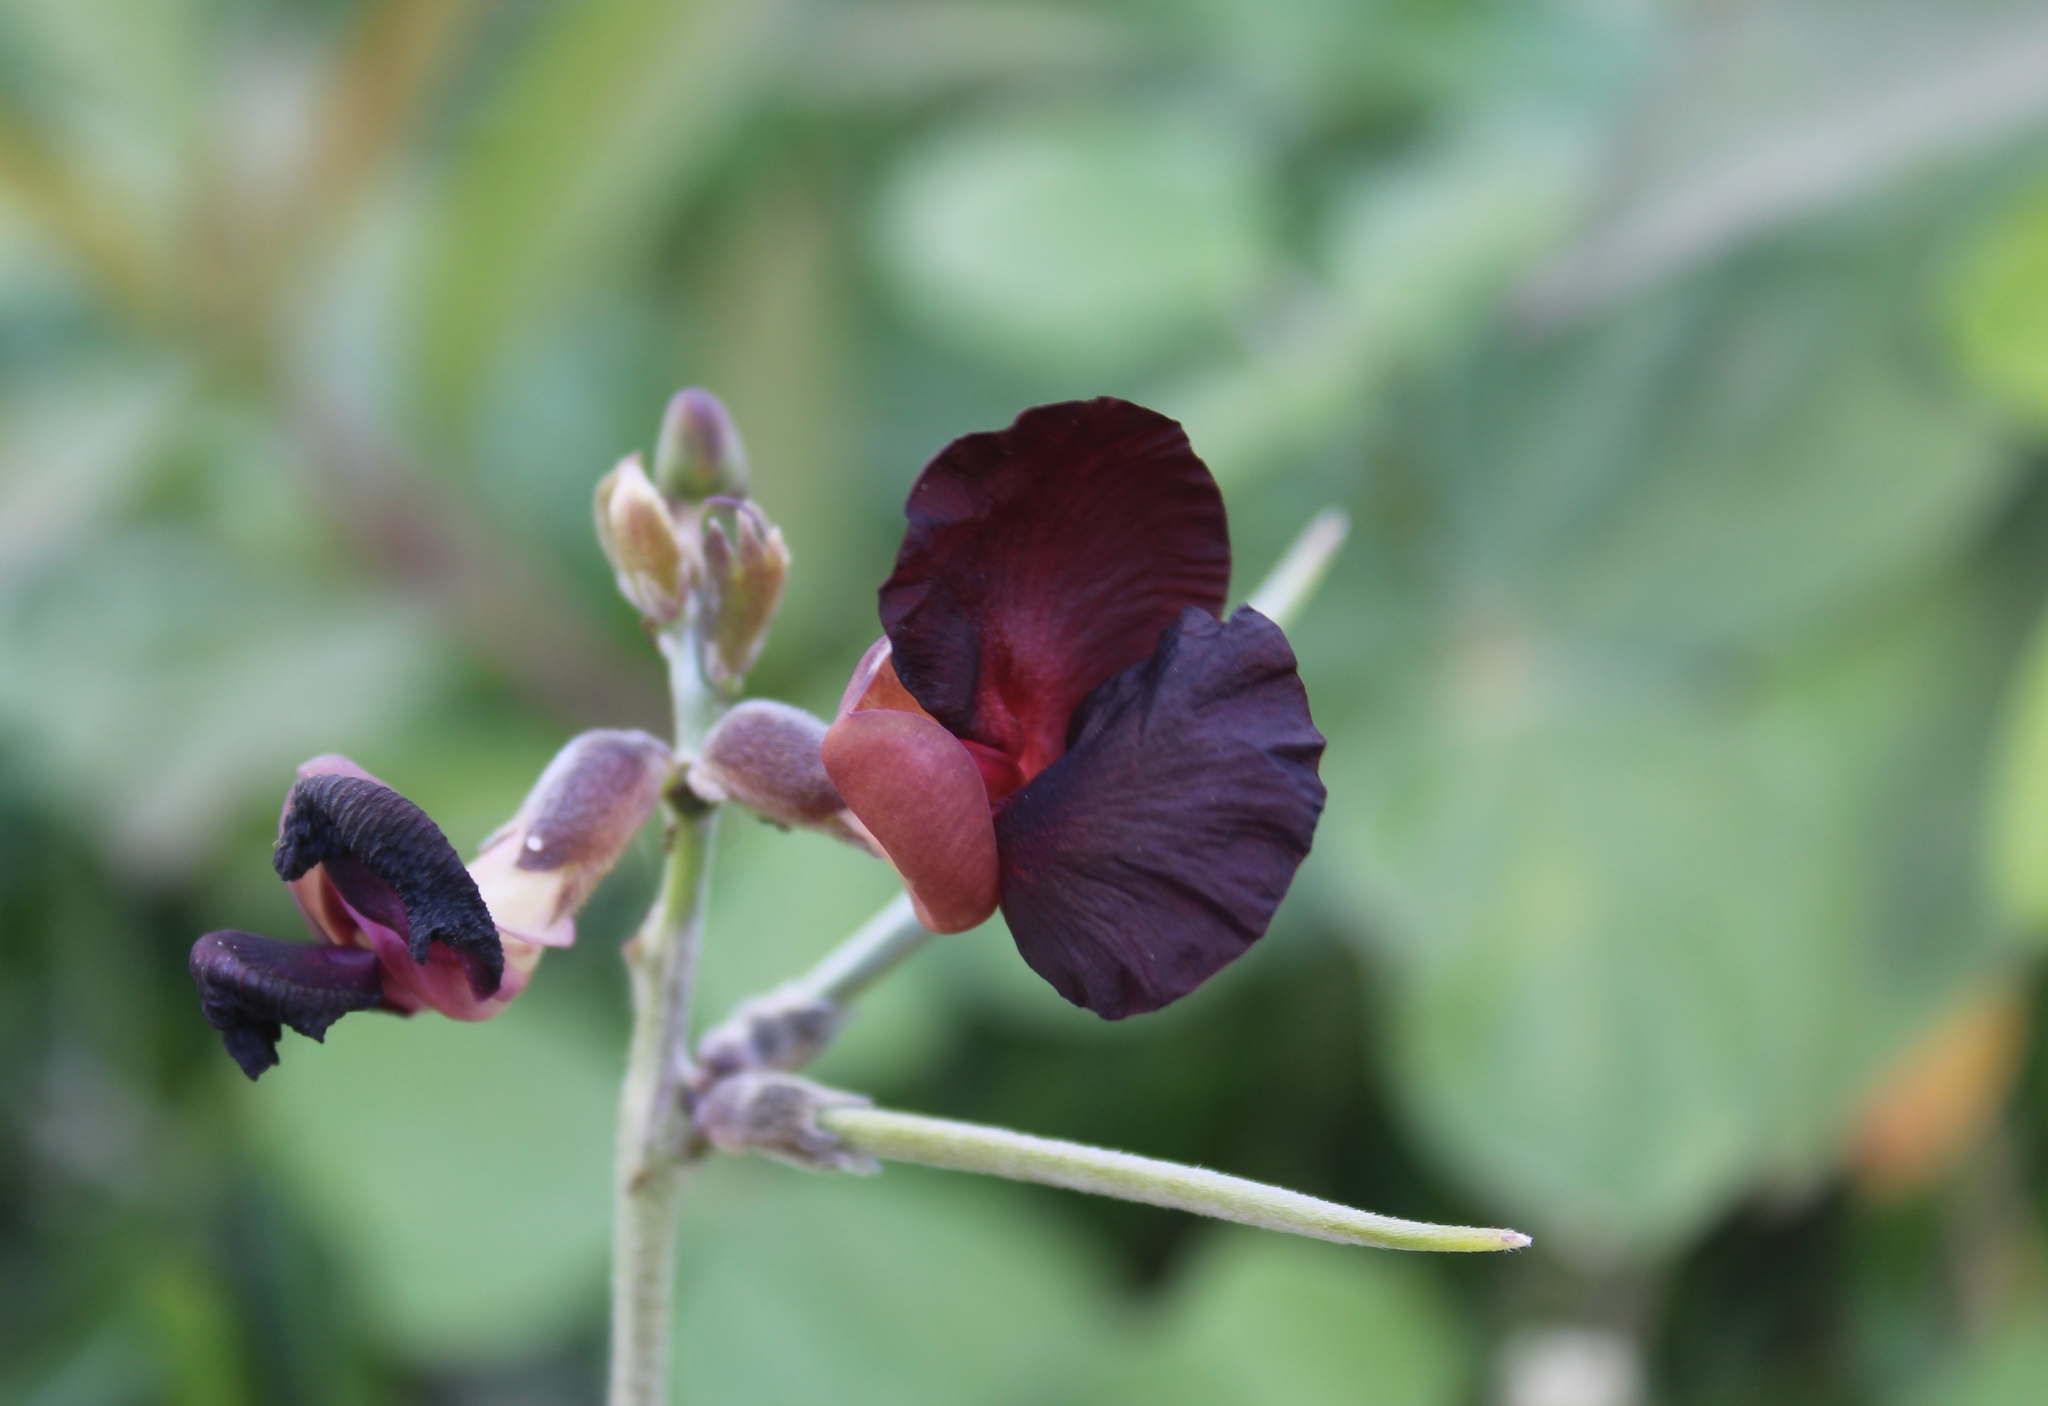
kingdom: Plantae
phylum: Tracheophyta
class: Magnoliopsida
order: Fabales
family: Fabaceae
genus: Macroptilium
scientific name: Macroptilium atropurpureum
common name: Purple bushbean
